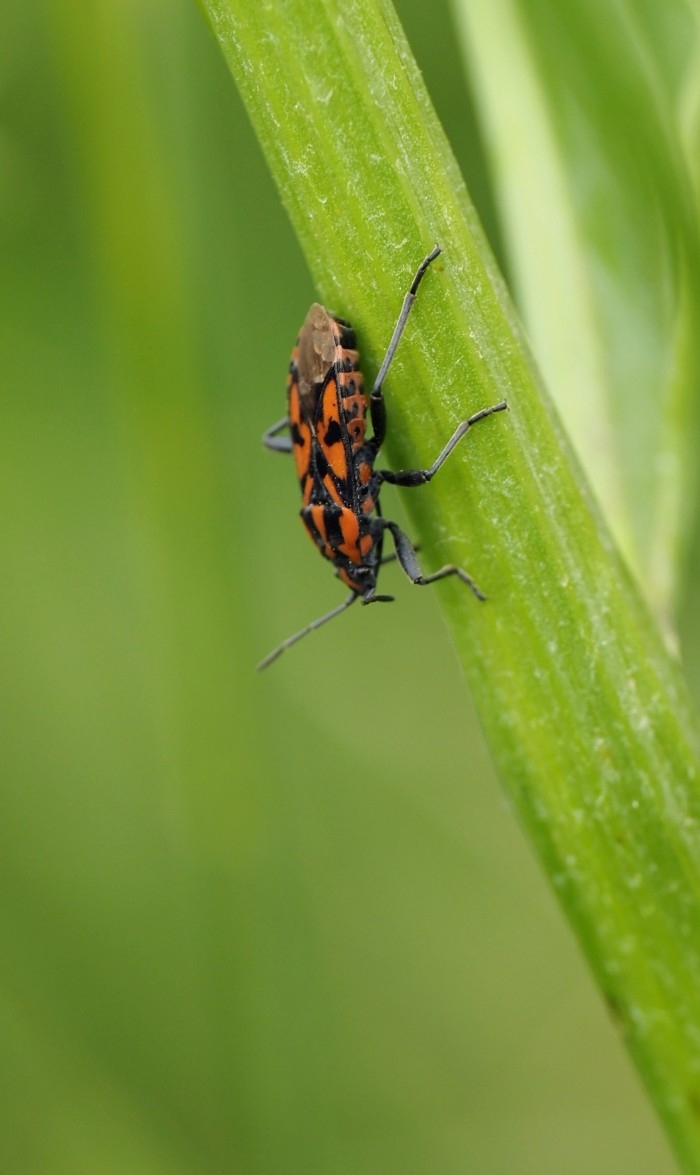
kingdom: Animalia
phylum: Arthropoda
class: Insecta
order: Hemiptera
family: Lygaeidae
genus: Spilostethus
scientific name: Spilostethus saxatilis
